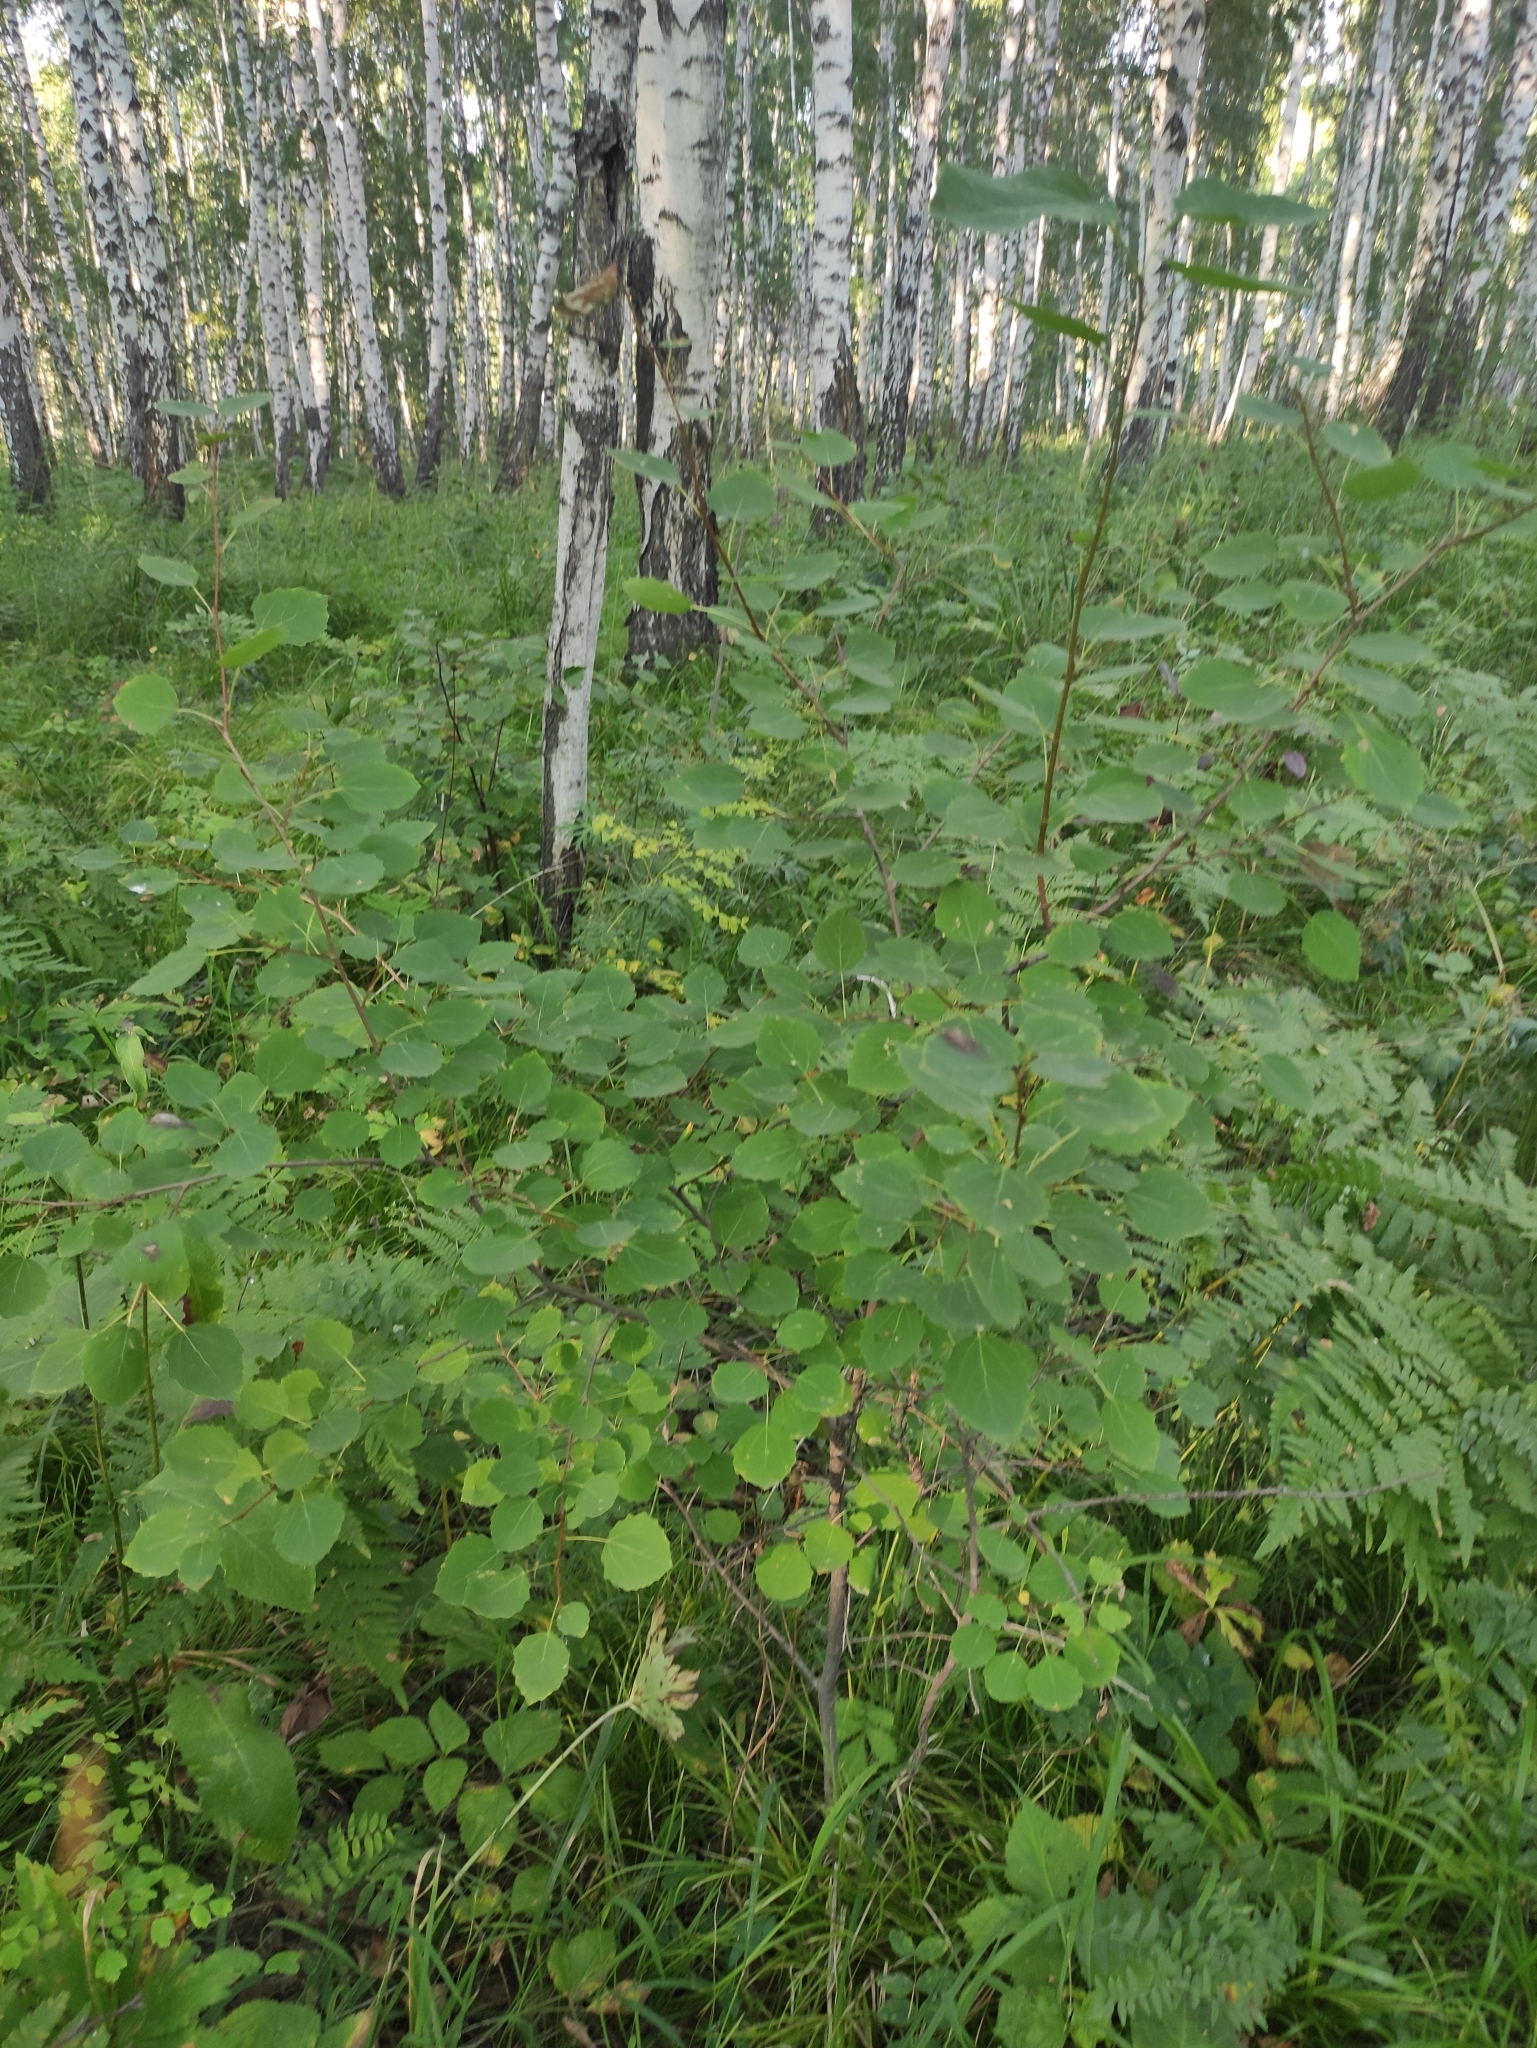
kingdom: Plantae
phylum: Tracheophyta
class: Magnoliopsida
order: Malpighiales
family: Salicaceae
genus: Populus
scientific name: Populus tremula
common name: European aspen
